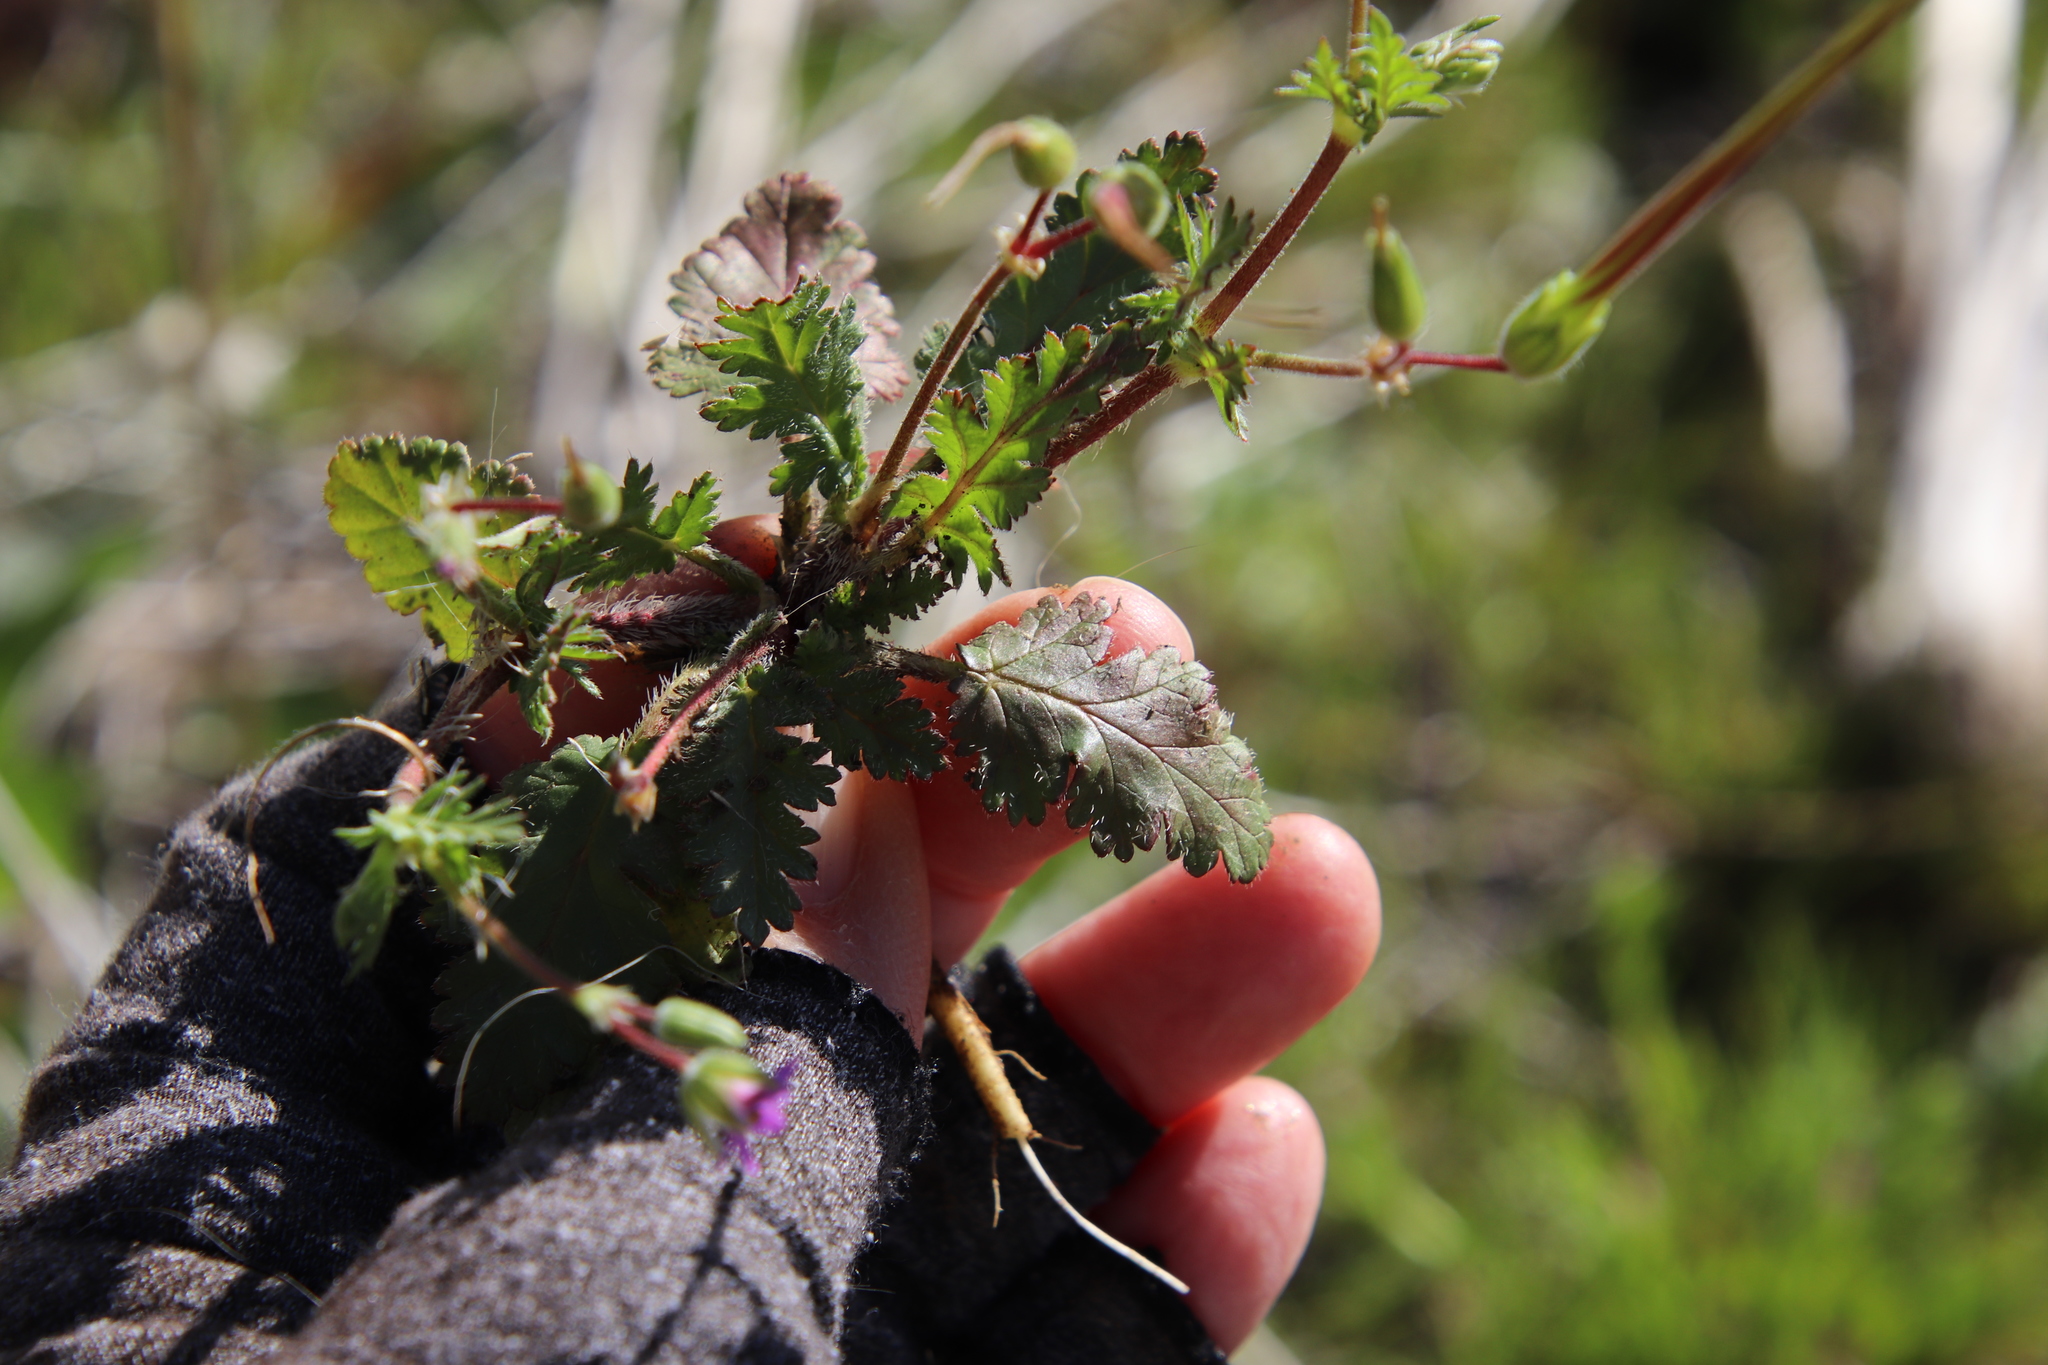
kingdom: Plantae
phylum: Tracheophyta
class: Magnoliopsida
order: Geraniales
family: Geraniaceae
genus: Erodium
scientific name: Erodium brachycarpum
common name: Hairy-pitted stork's-bill
